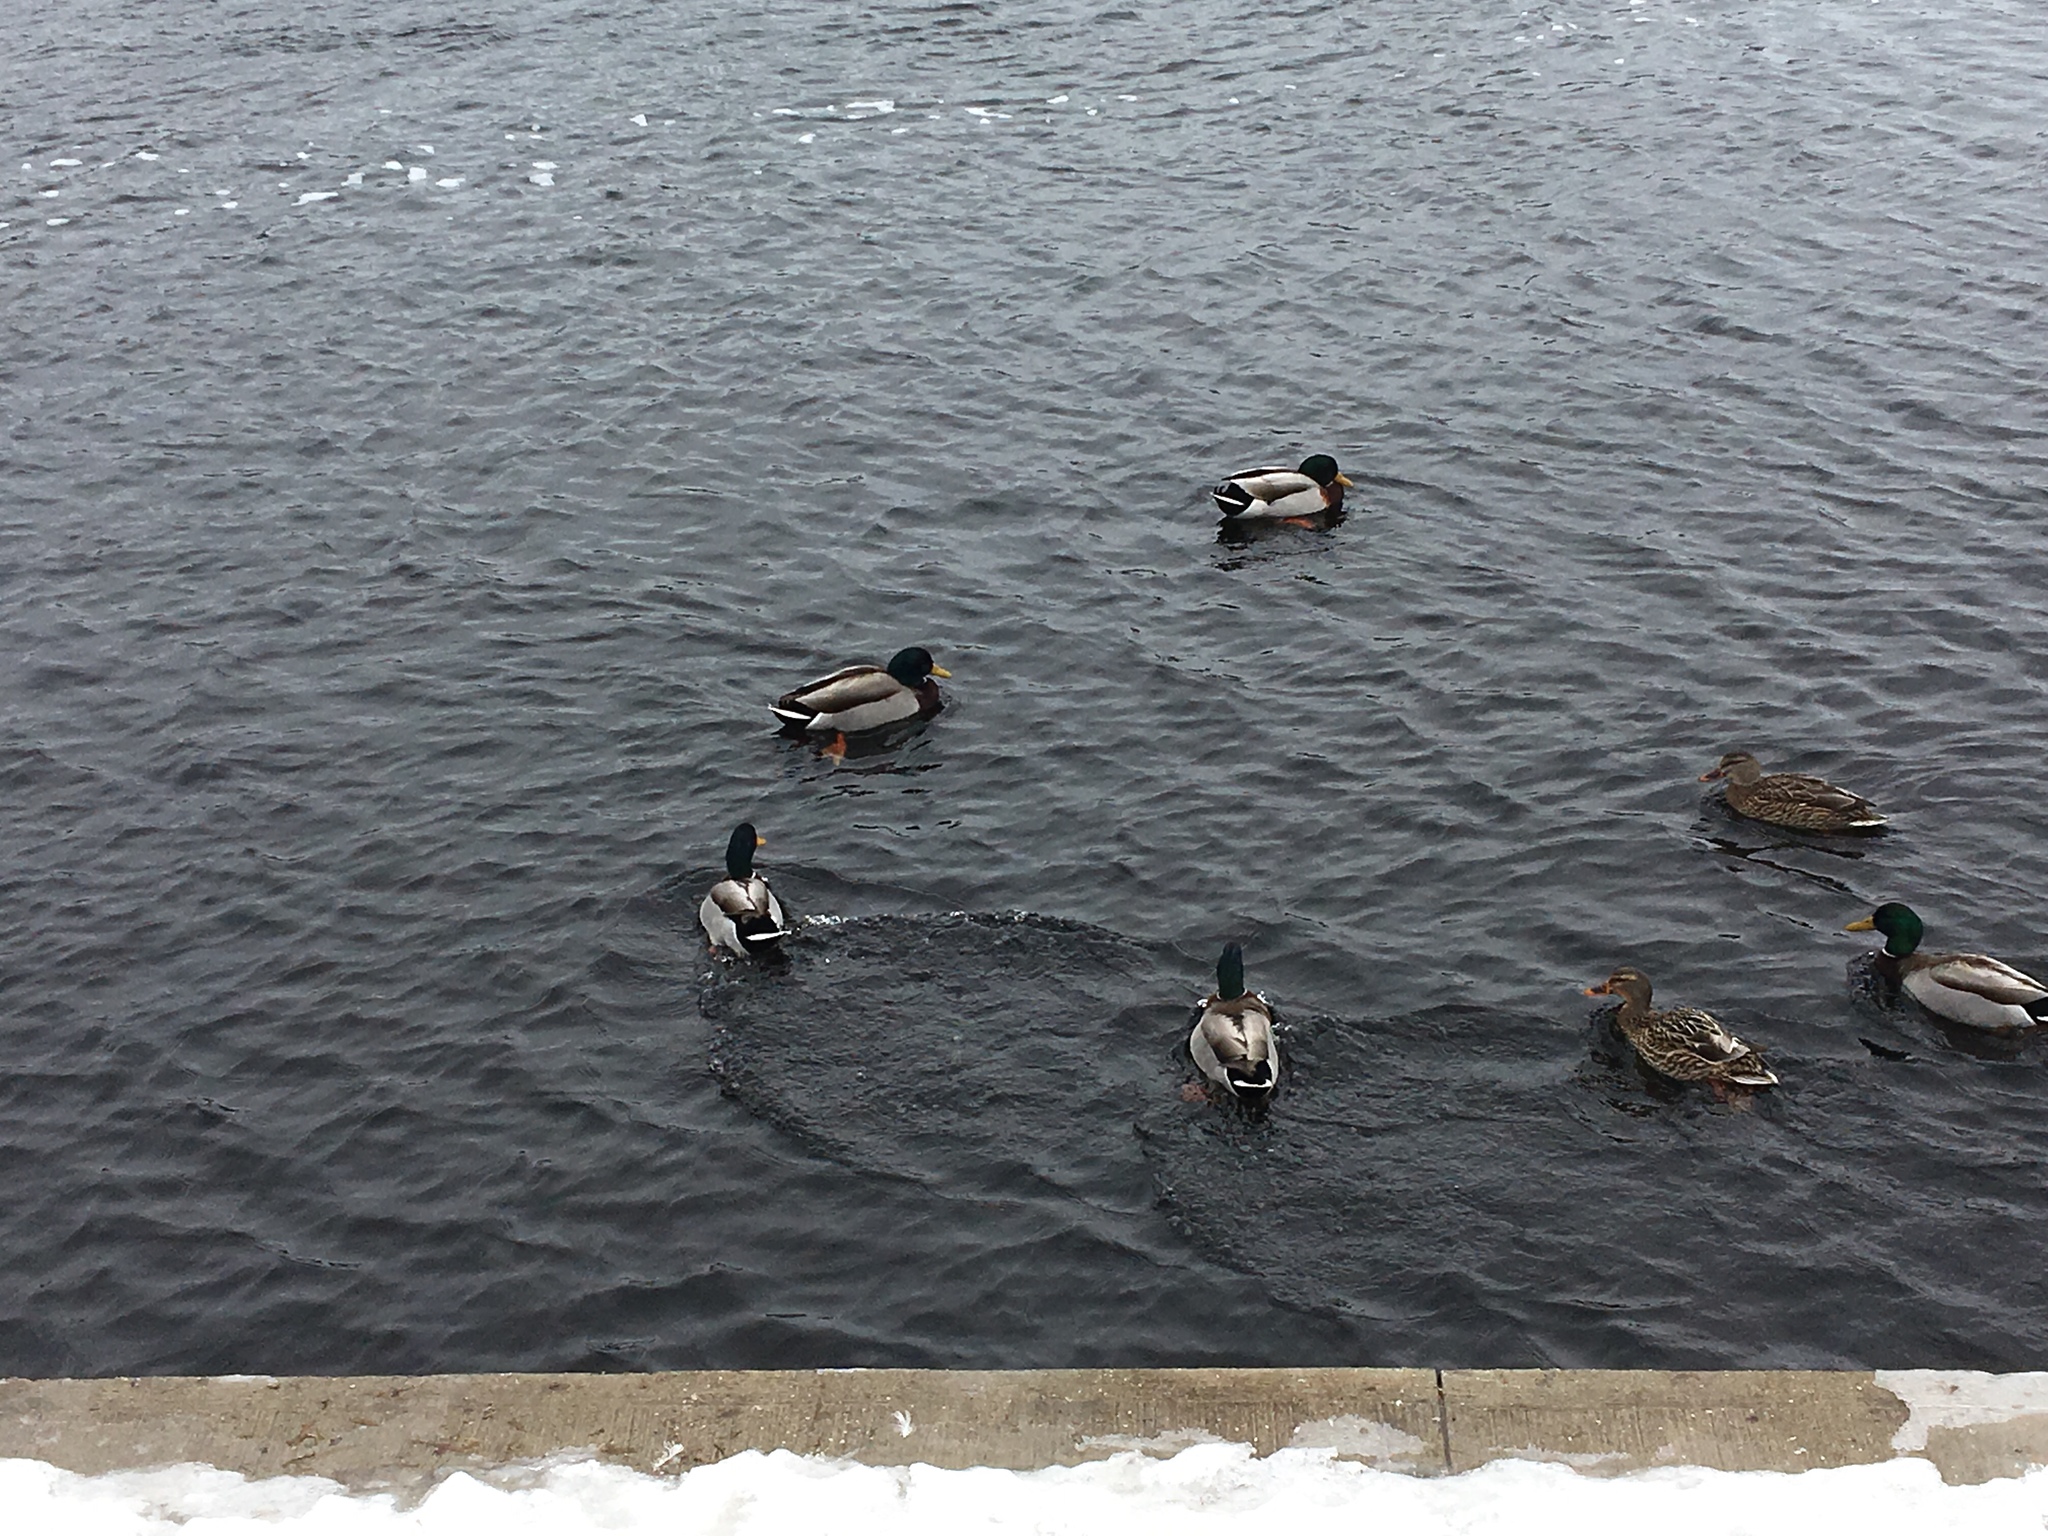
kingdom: Animalia
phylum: Chordata
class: Aves
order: Anseriformes
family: Anatidae
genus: Anas
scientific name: Anas platyrhynchos
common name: Mallard
